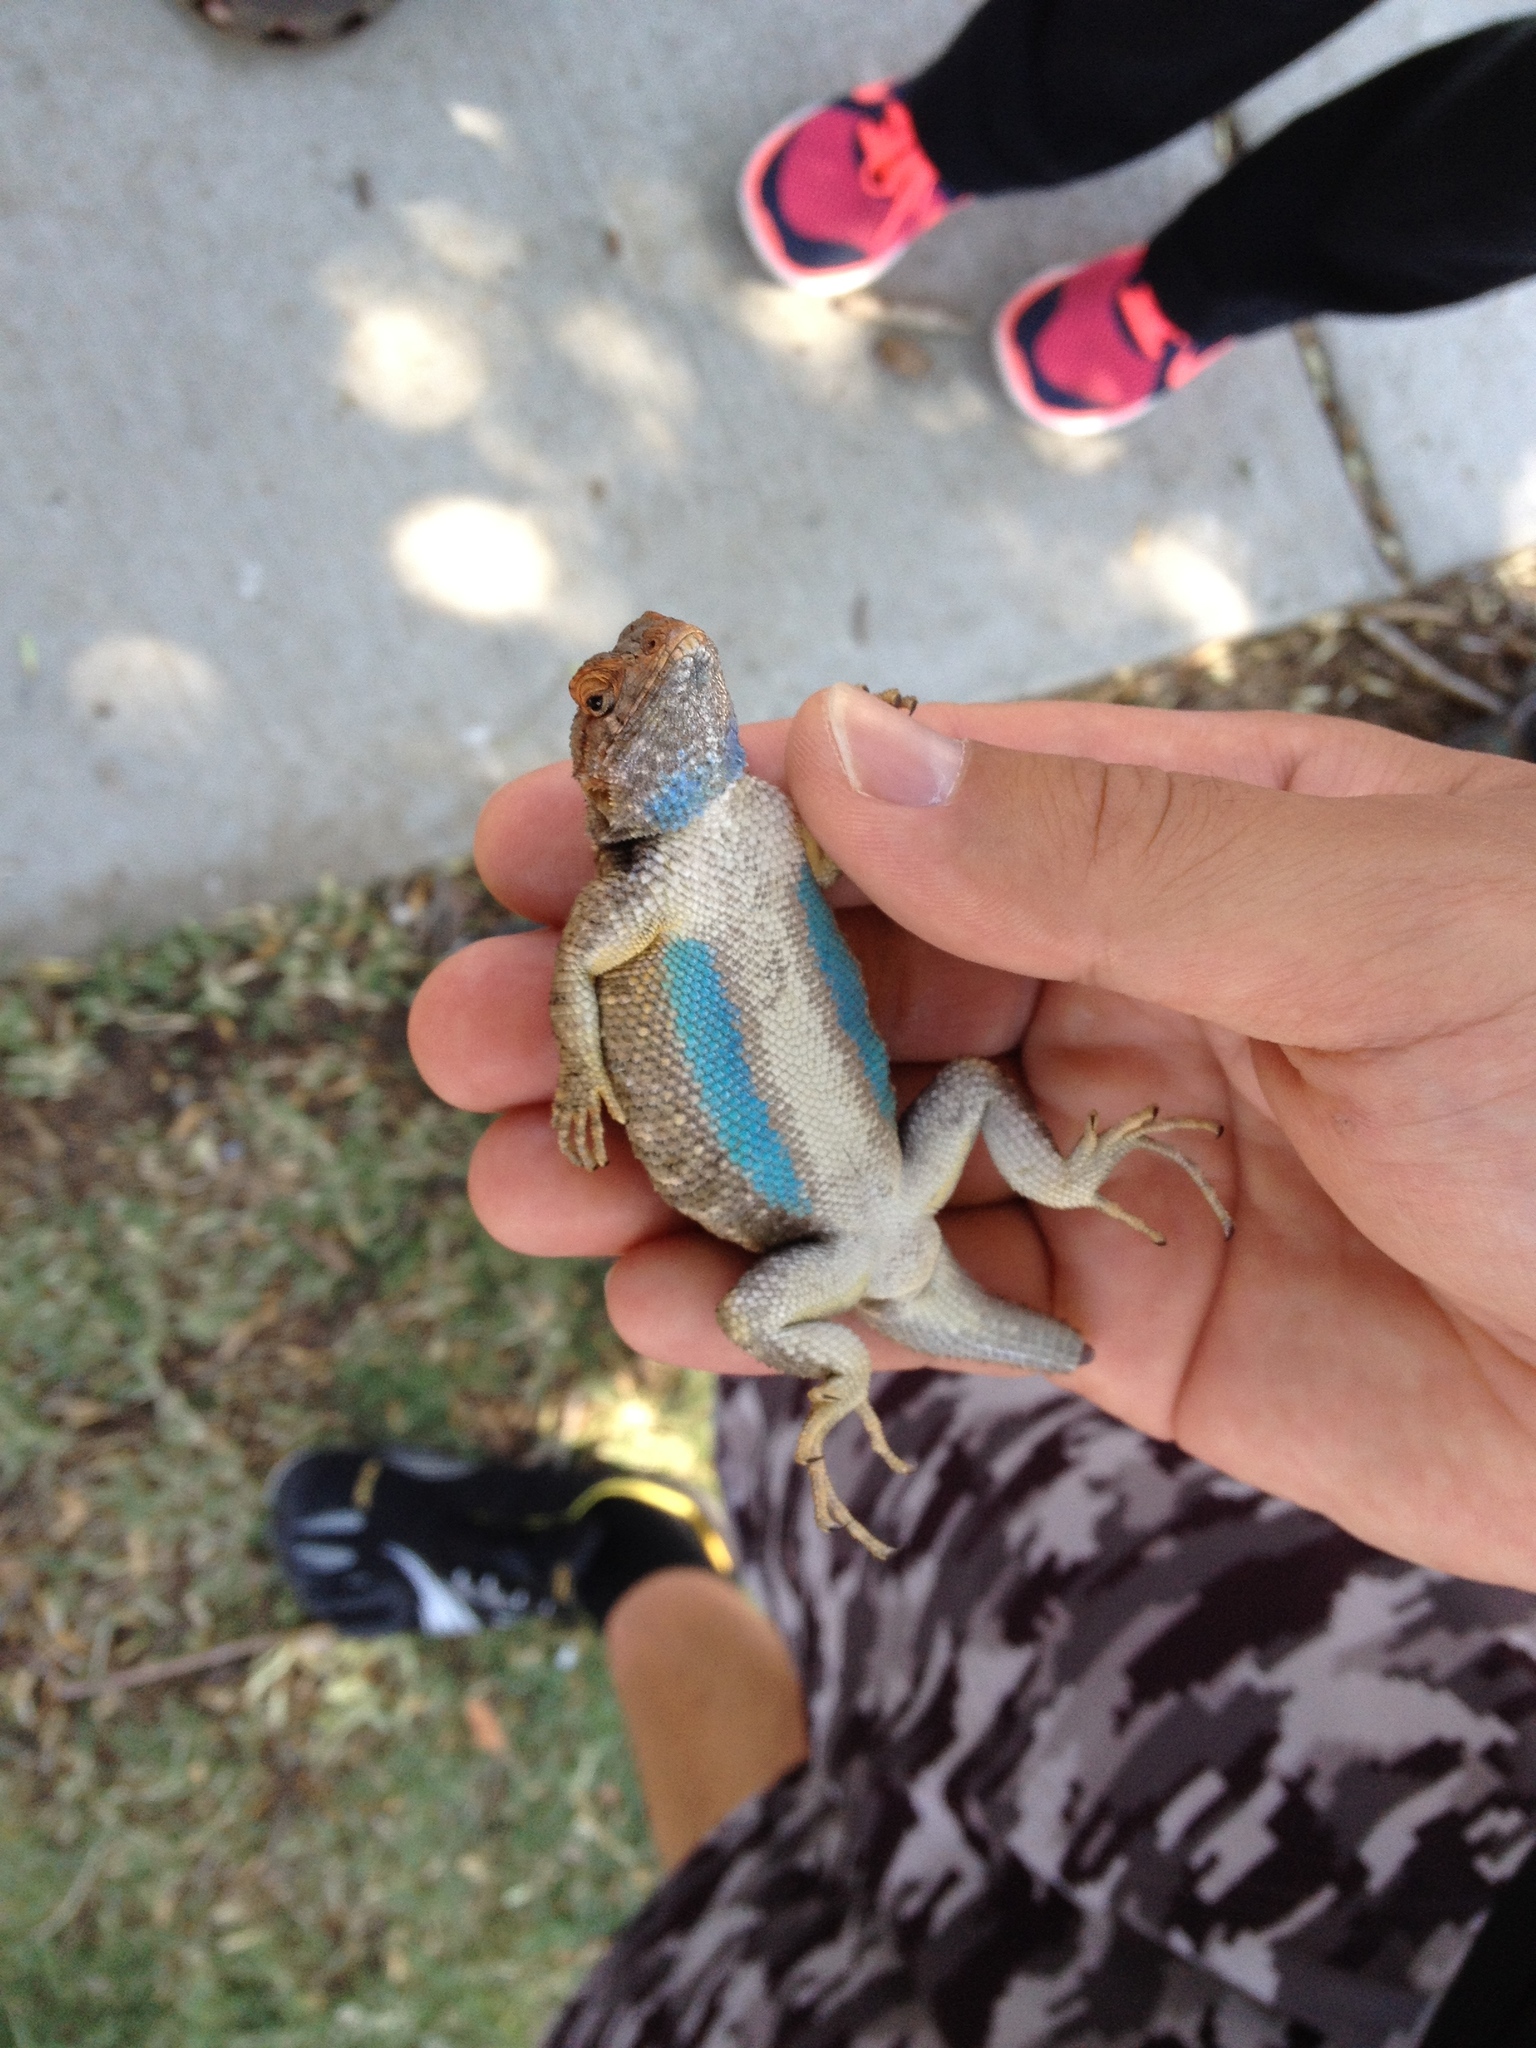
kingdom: Animalia
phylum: Chordata
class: Squamata
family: Phrynosomatidae
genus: Sceloporus
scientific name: Sceloporus occidentalis
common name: Western fence lizard
